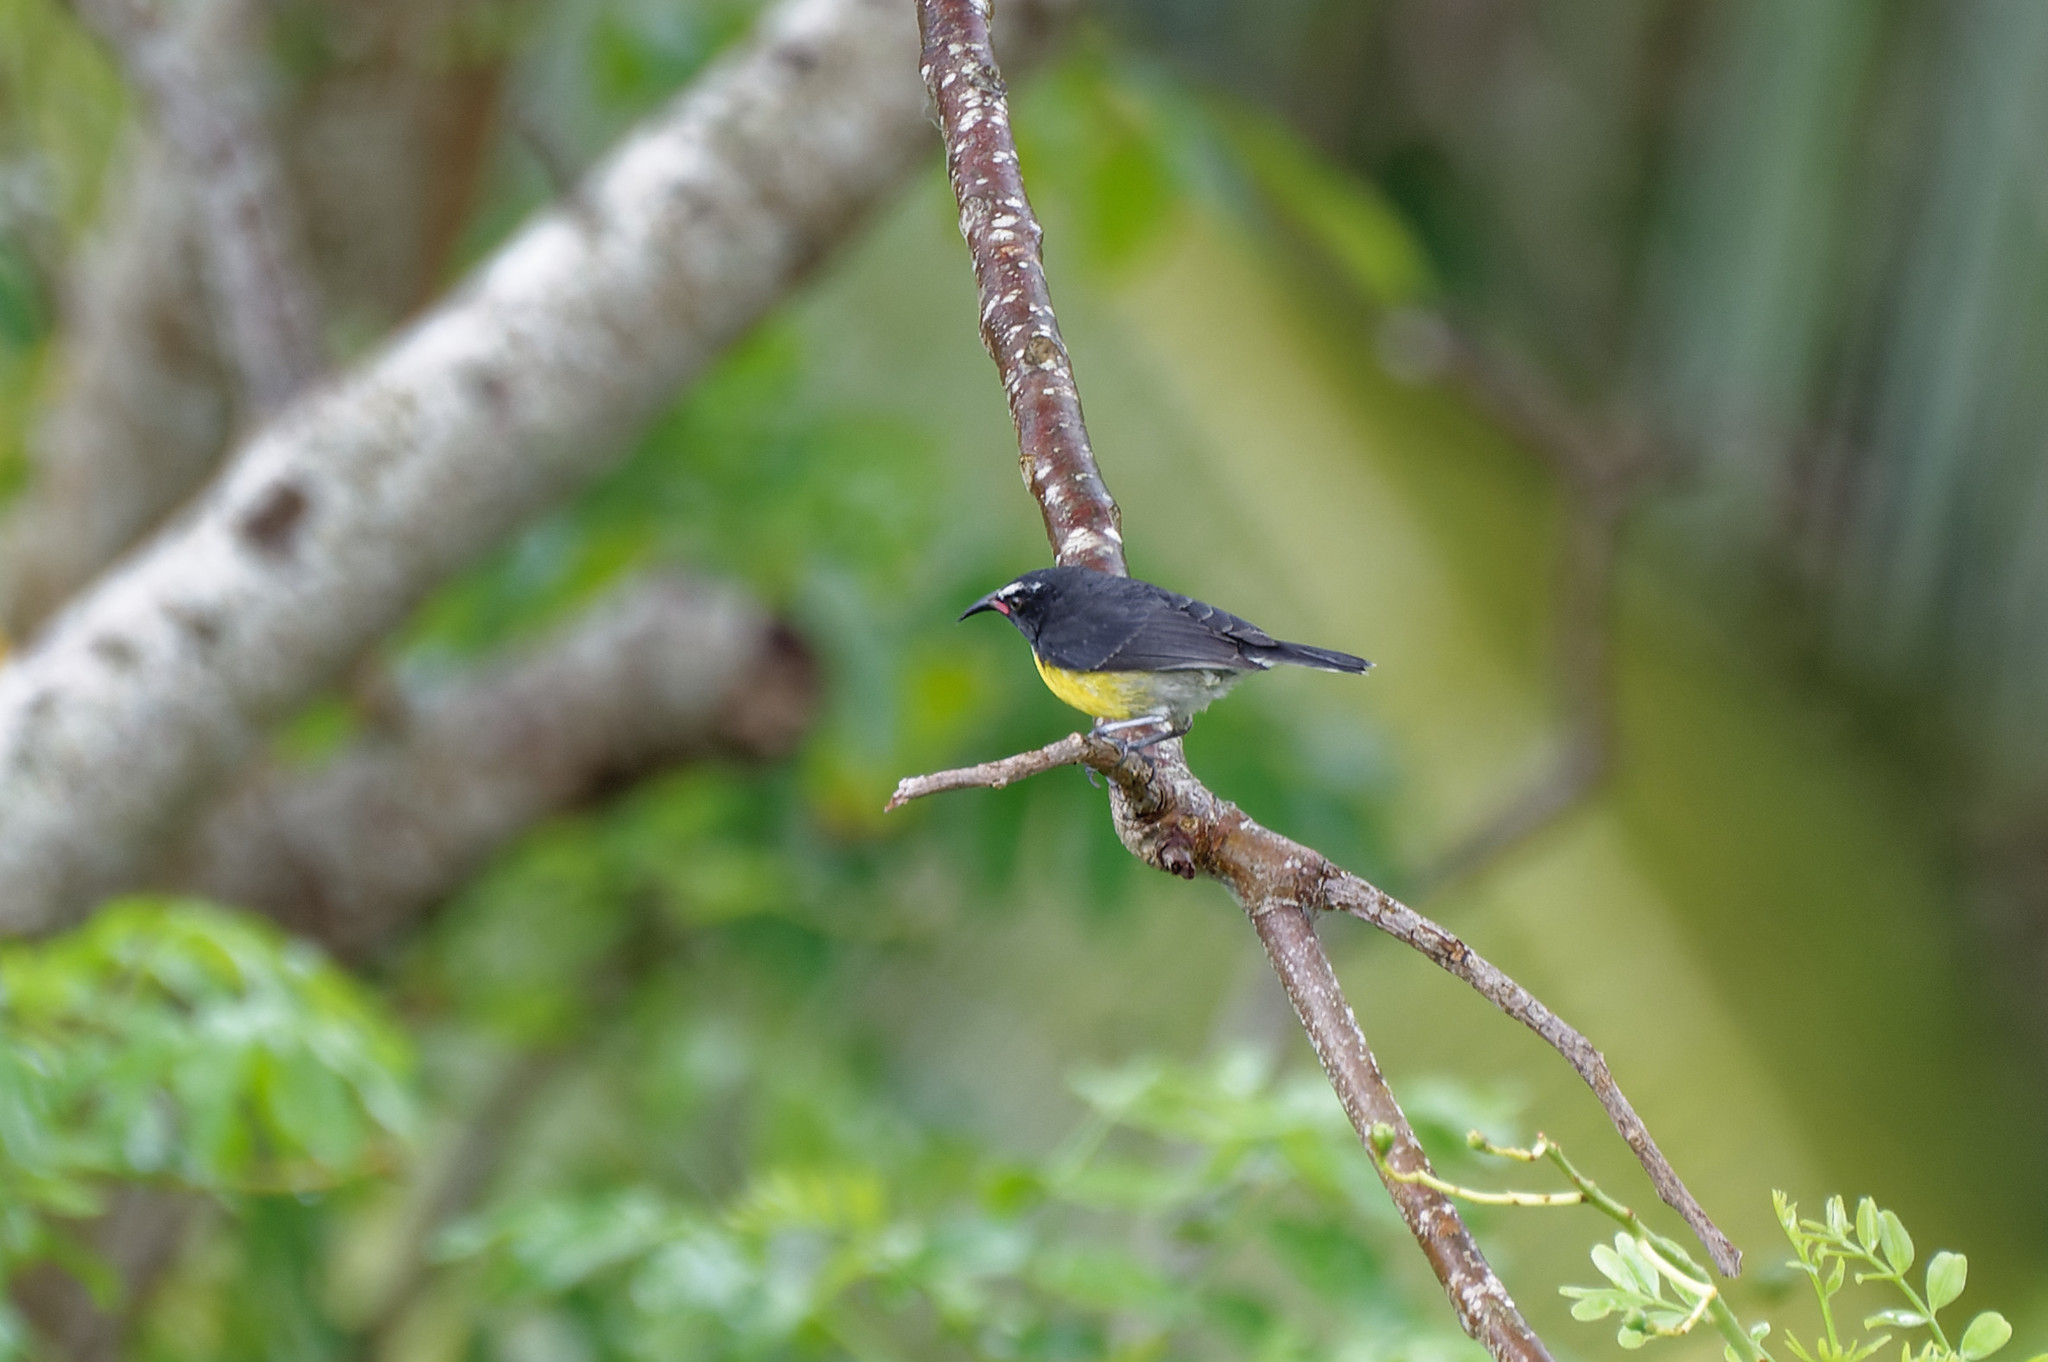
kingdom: Animalia
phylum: Chordata
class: Aves
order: Passeriformes
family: Thraupidae
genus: Coereba
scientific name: Coereba flaveola
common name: Bananaquit
